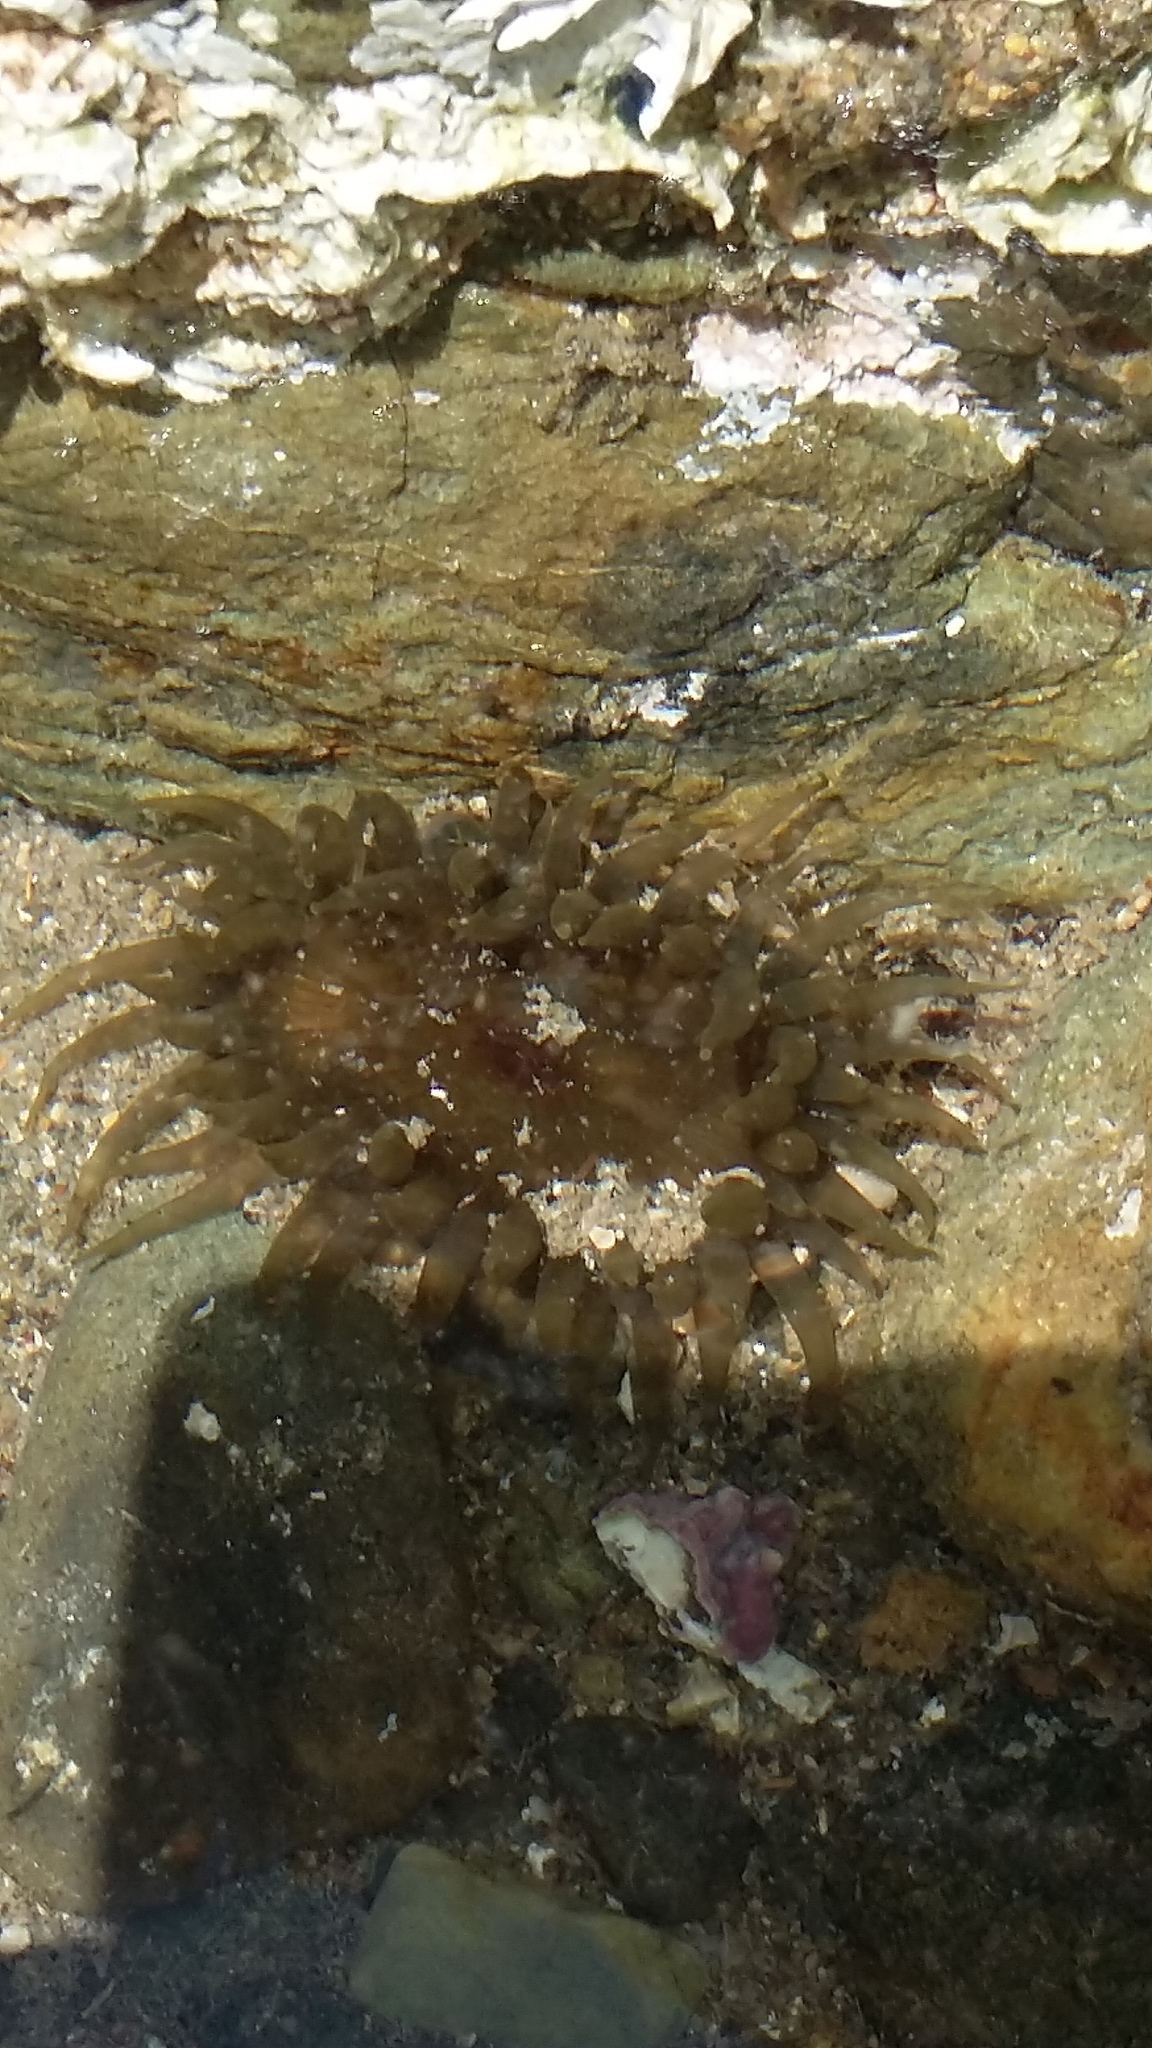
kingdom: Animalia
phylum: Cnidaria
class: Anthozoa
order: Actiniaria
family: Actiniidae
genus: Isactinia
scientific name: Isactinia olivacea
